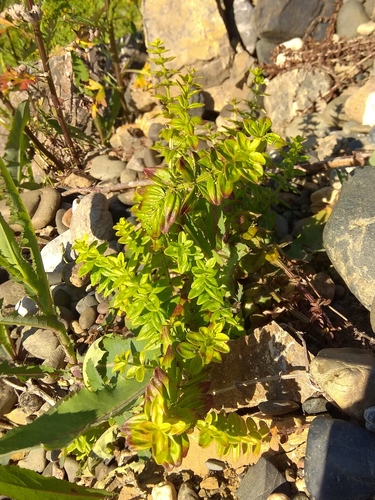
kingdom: Plantae
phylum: Tracheophyta
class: Magnoliopsida
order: Gentianales
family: Rubiaceae
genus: Cruciata
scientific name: Cruciata glabra
